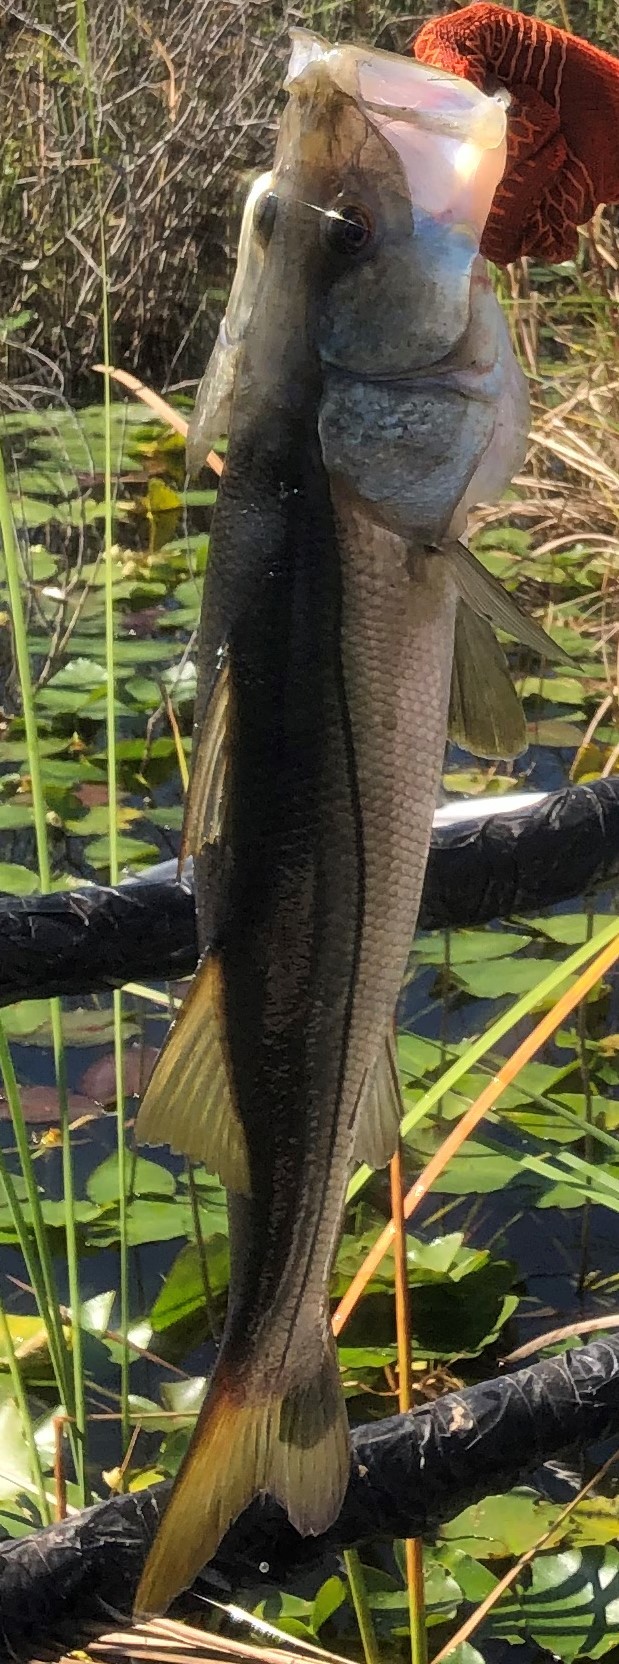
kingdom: Animalia
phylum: Chordata
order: Perciformes
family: Centropomidae
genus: Centropomus
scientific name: Centropomus undecimalis
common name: Snook
